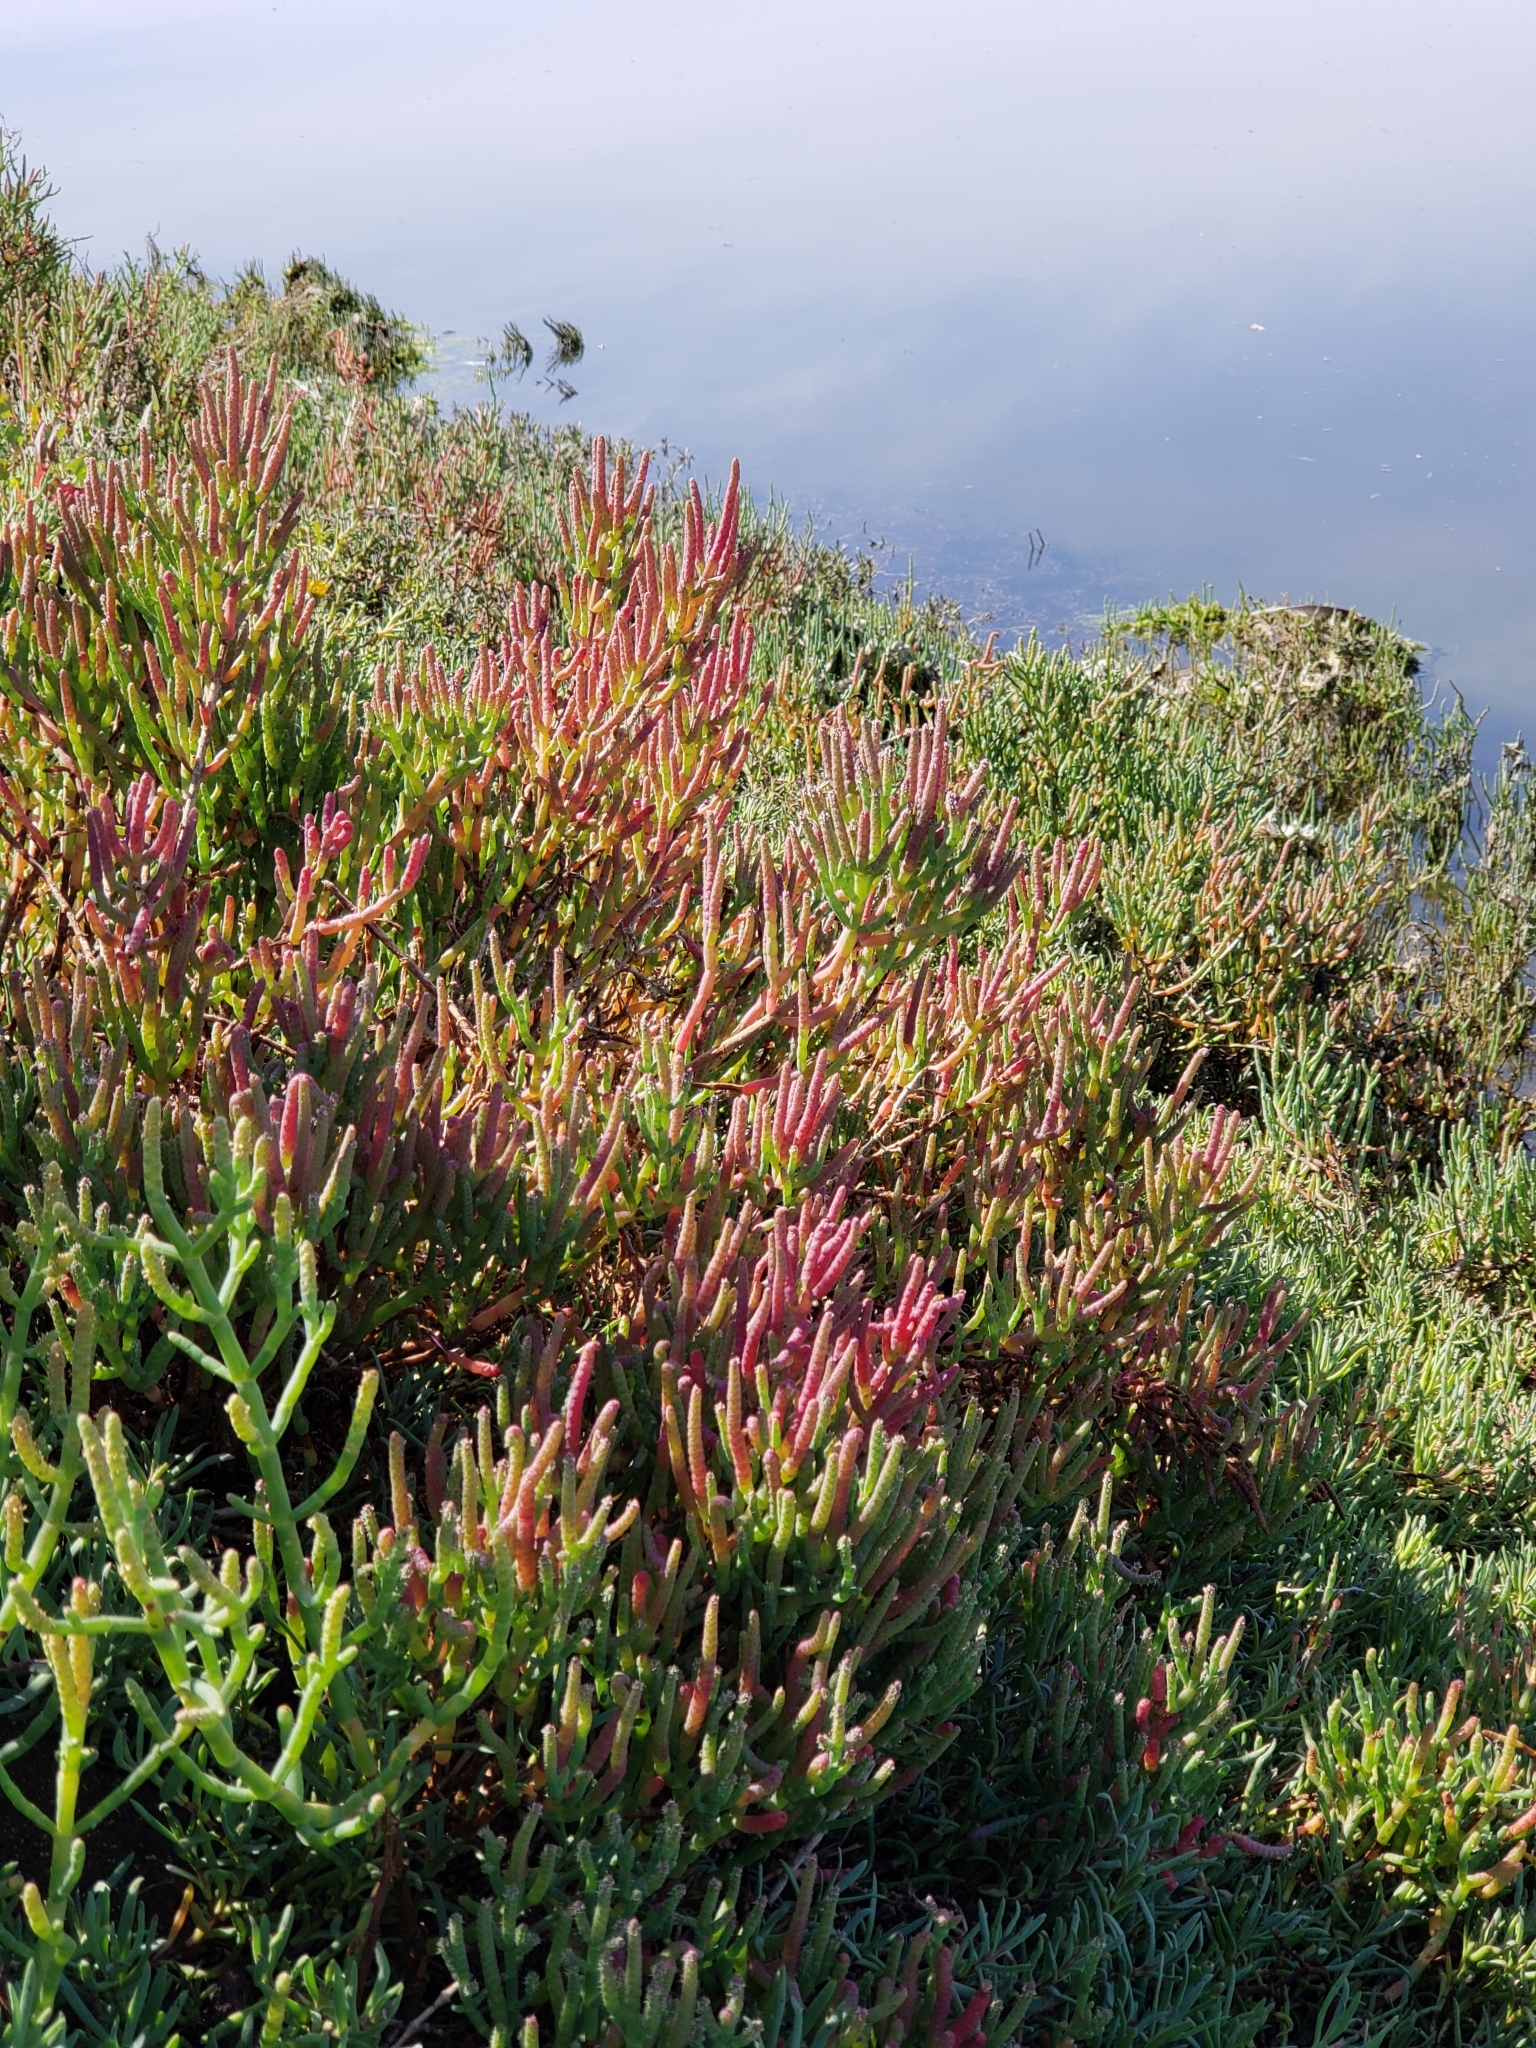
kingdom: Plantae
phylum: Tracheophyta
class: Magnoliopsida
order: Caryophyllales
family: Amaranthaceae
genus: Salicornia
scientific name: Salicornia pacifica
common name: Pacific glasswort
